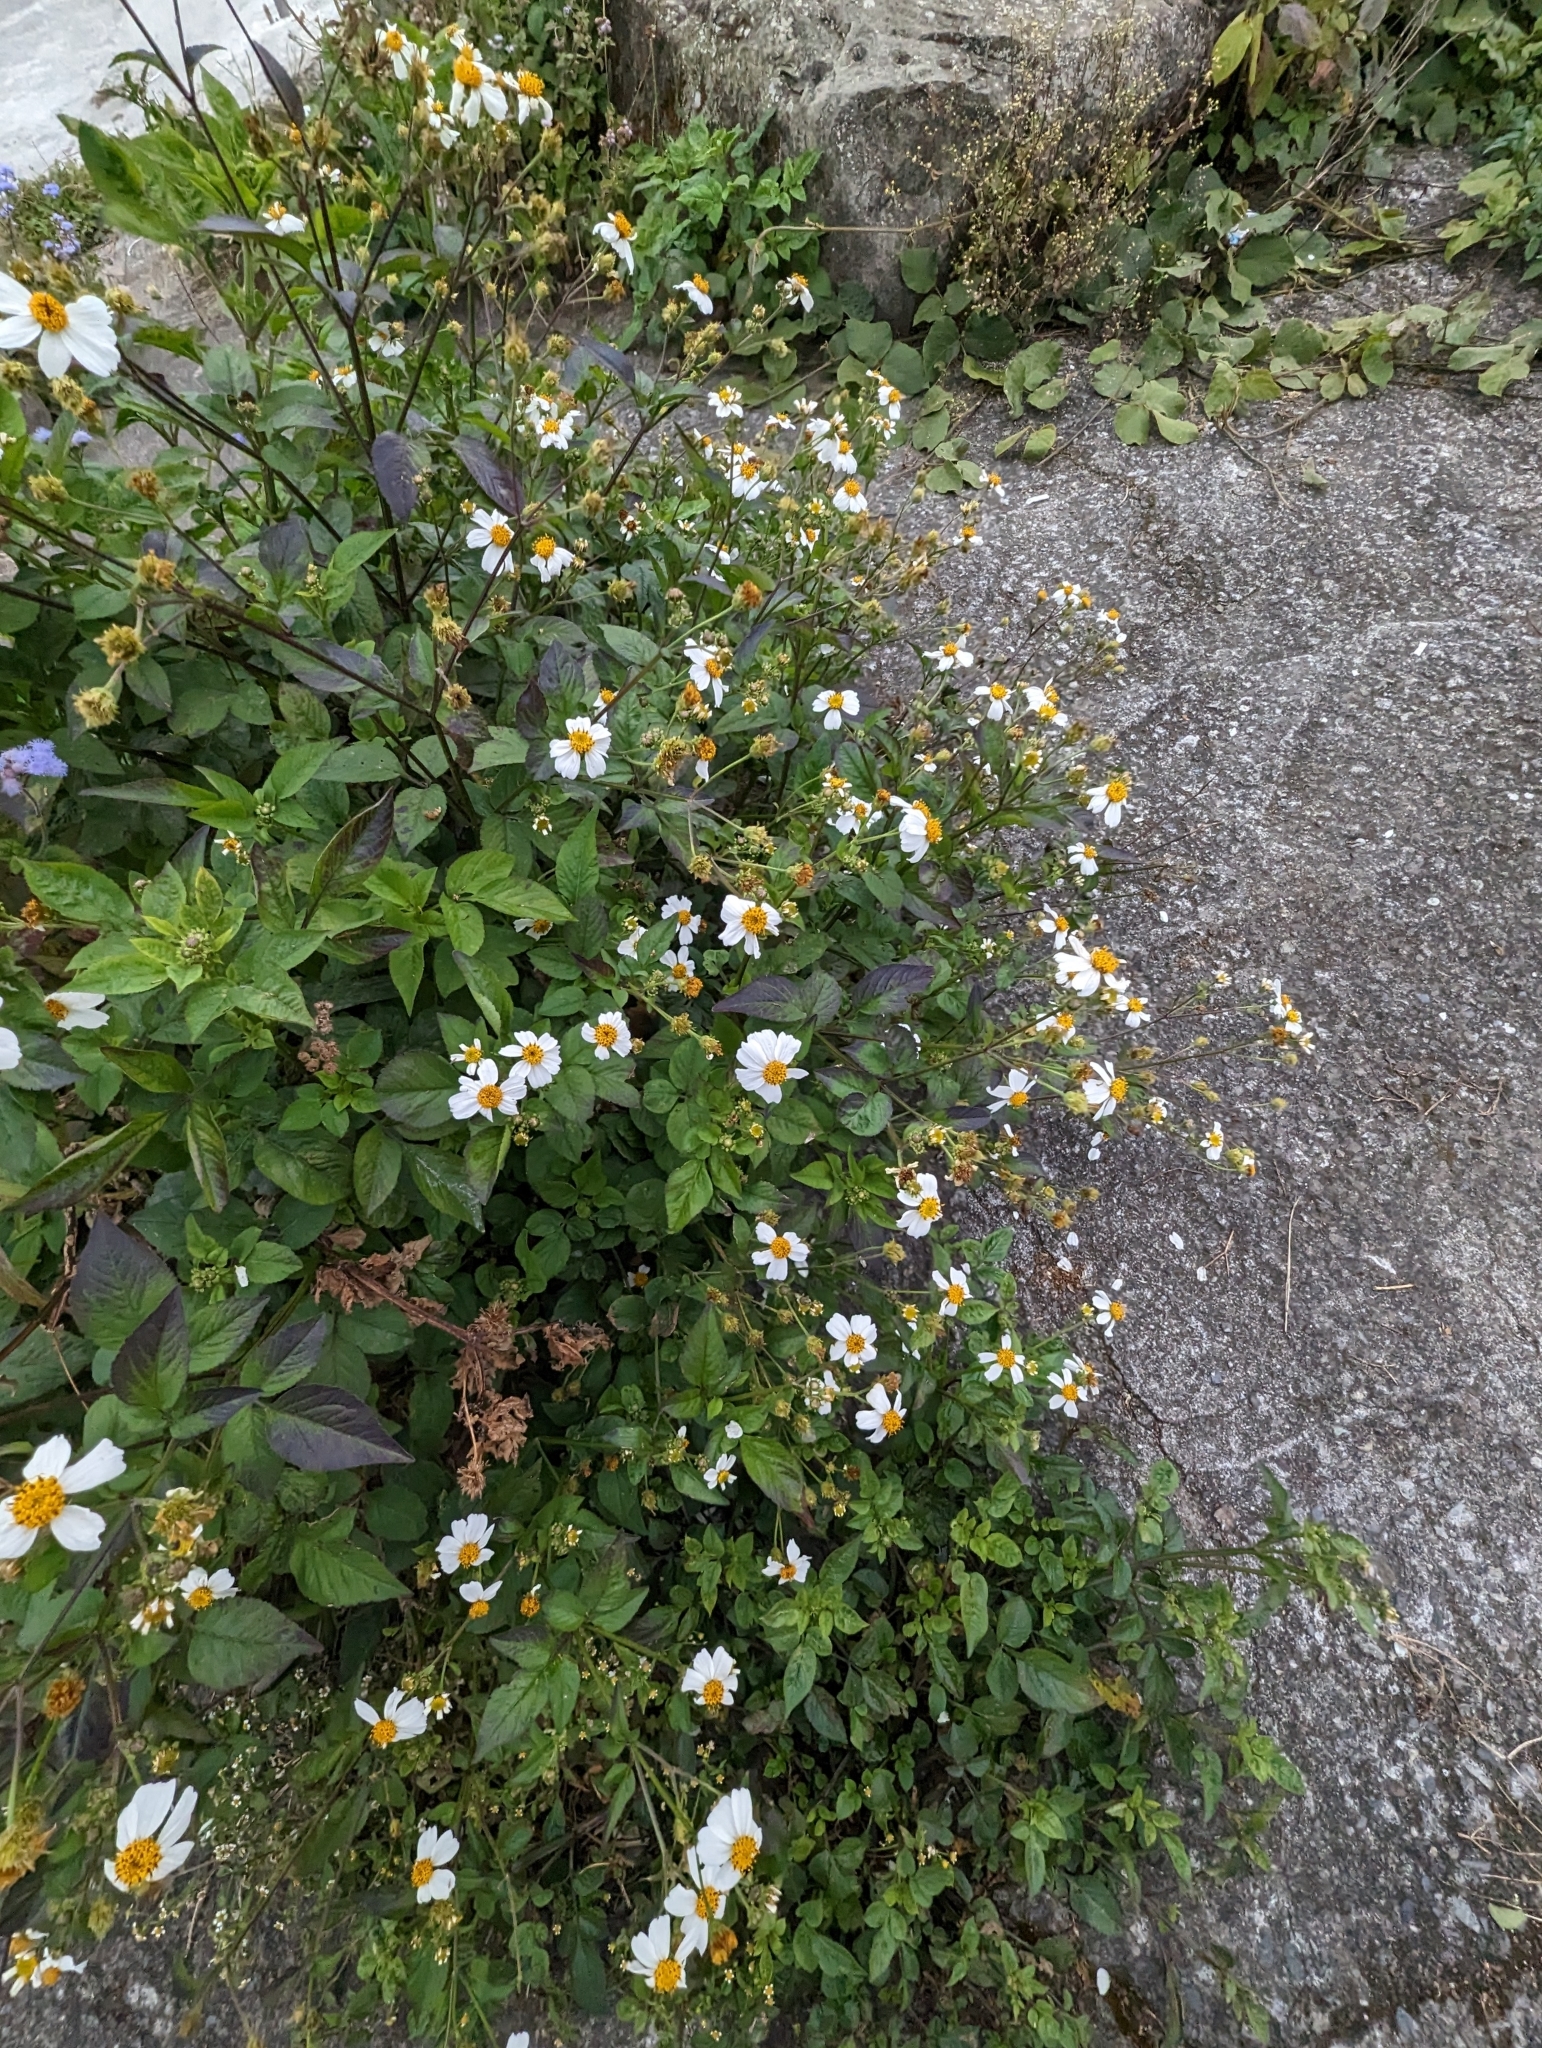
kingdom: Plantae
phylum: Tracheophyta
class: Magnoliopsida
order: Asterales
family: Asteraceae
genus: Bidens
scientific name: Bidens alba
